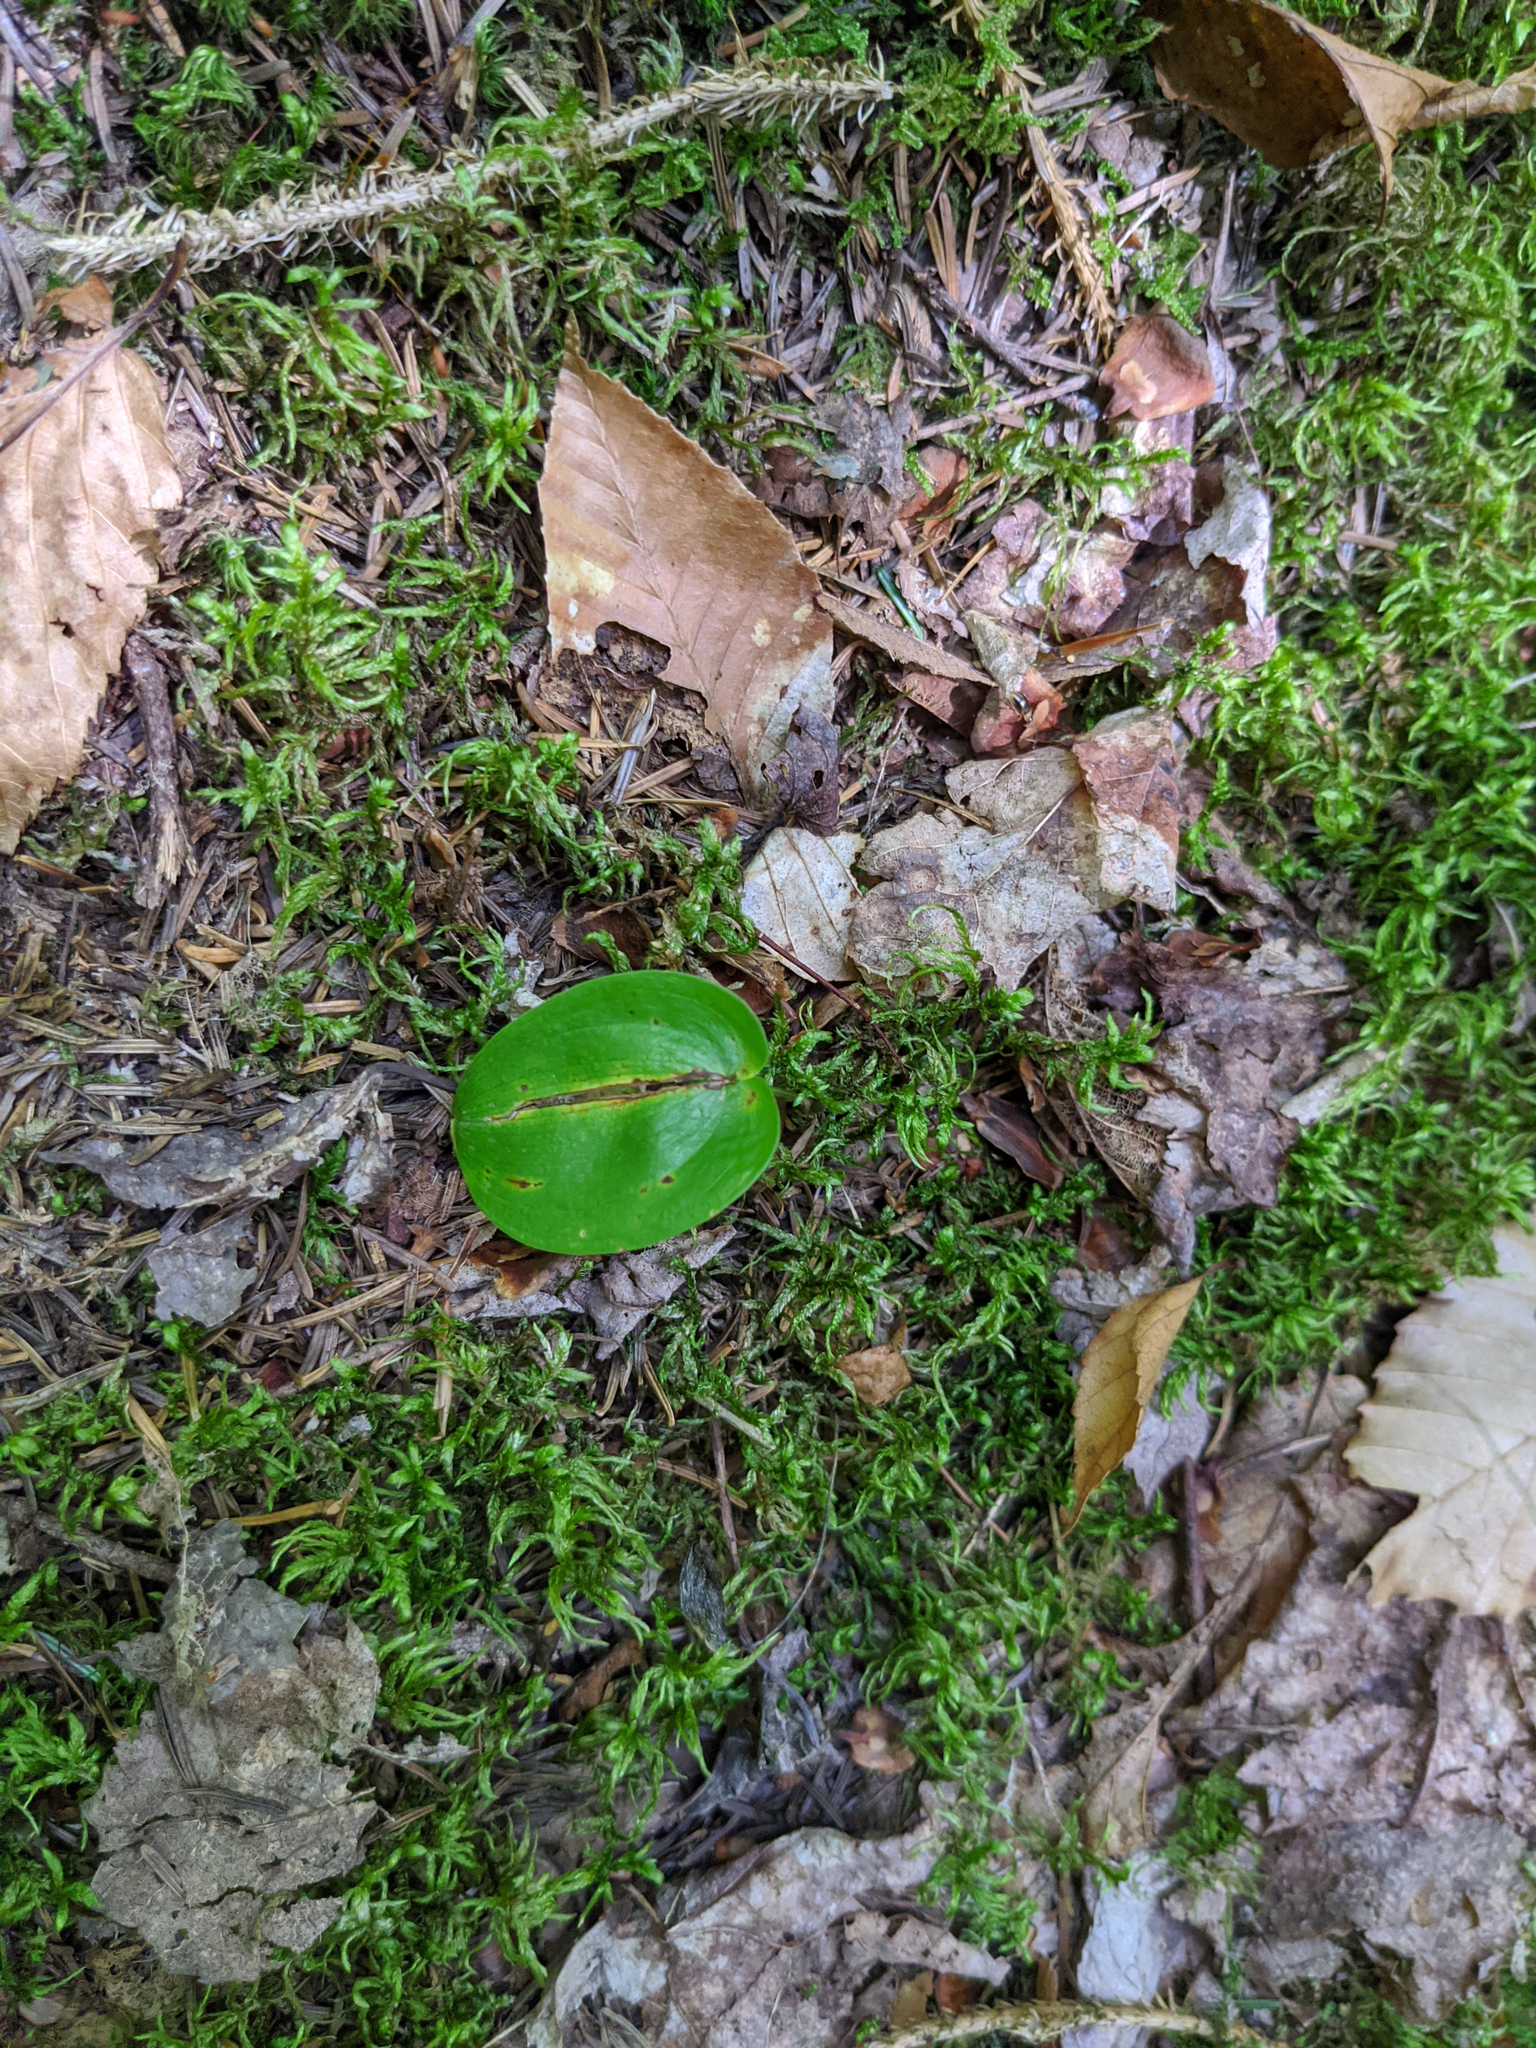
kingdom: Plantae
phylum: Tracheophyta
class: Liliopsida
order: Asparagales
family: Asparagaceae
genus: Maianthemum
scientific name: Maianthemum canadense
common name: False lily-of-the-valley
